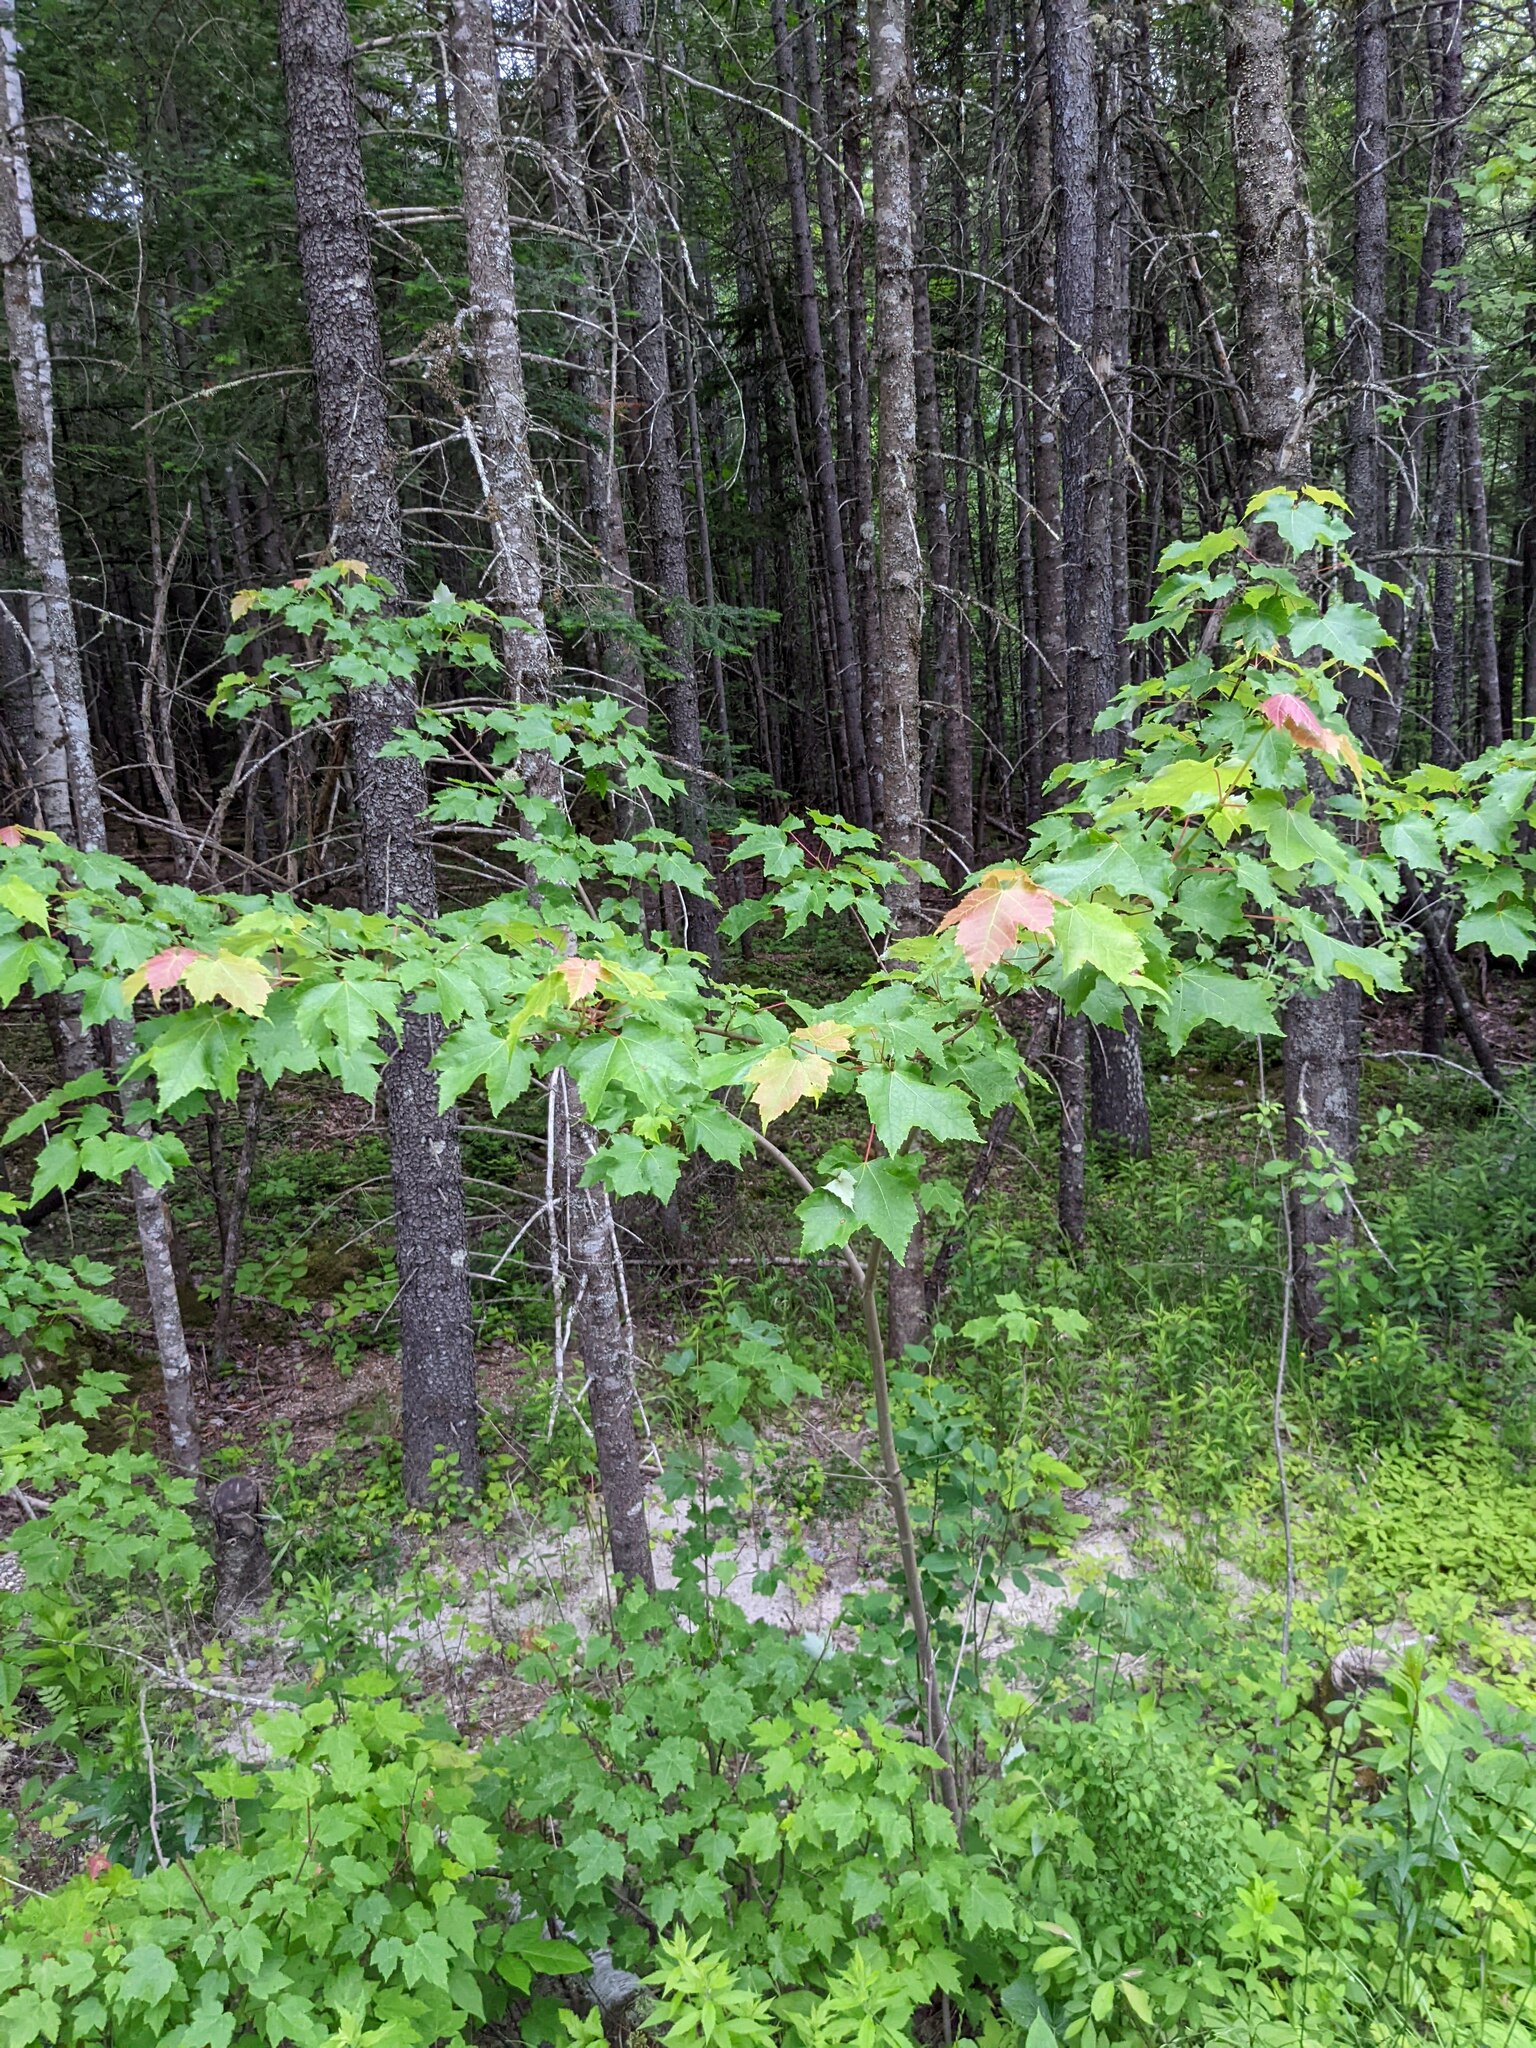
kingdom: Plantae
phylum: Tracheophyta
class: Magnoliopsida
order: Sapindales
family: Sapindaceae
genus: Acer
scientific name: Acer rubrum
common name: Red maple
